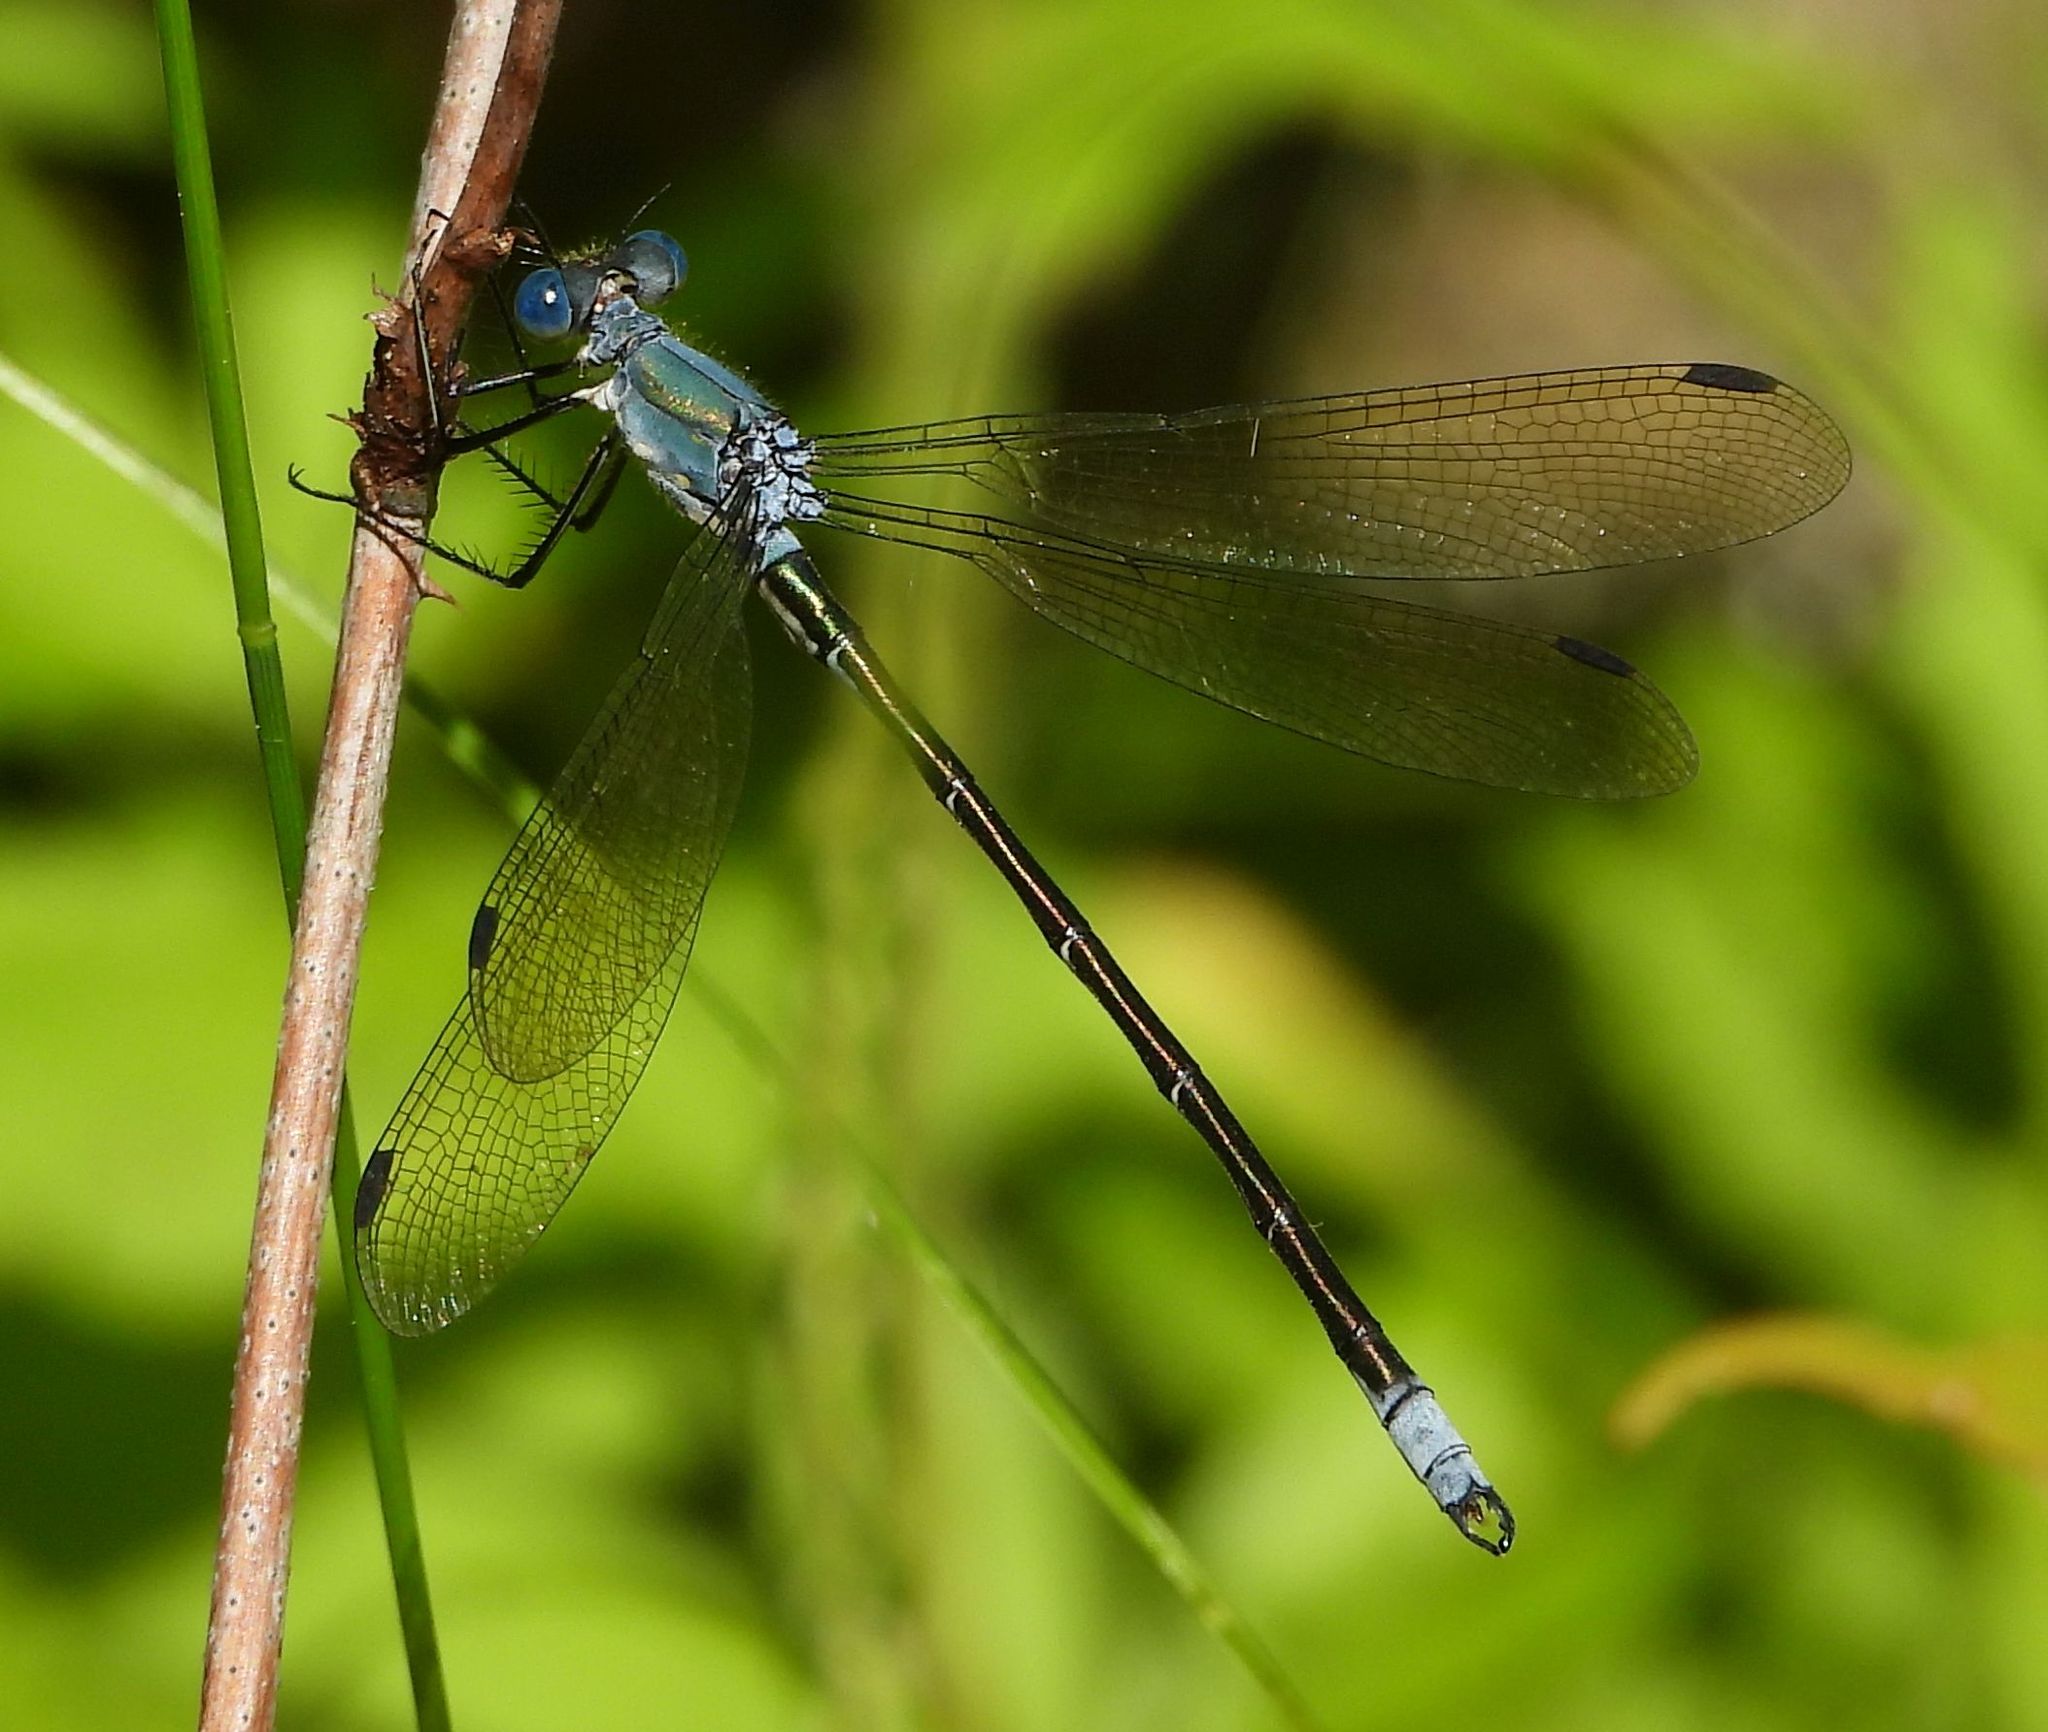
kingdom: Animalia
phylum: Arthropoda
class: Insecta
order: Odonata
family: Lestidae
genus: Lestes
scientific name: Lestes eurinus
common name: Amber-winged spreadwing
